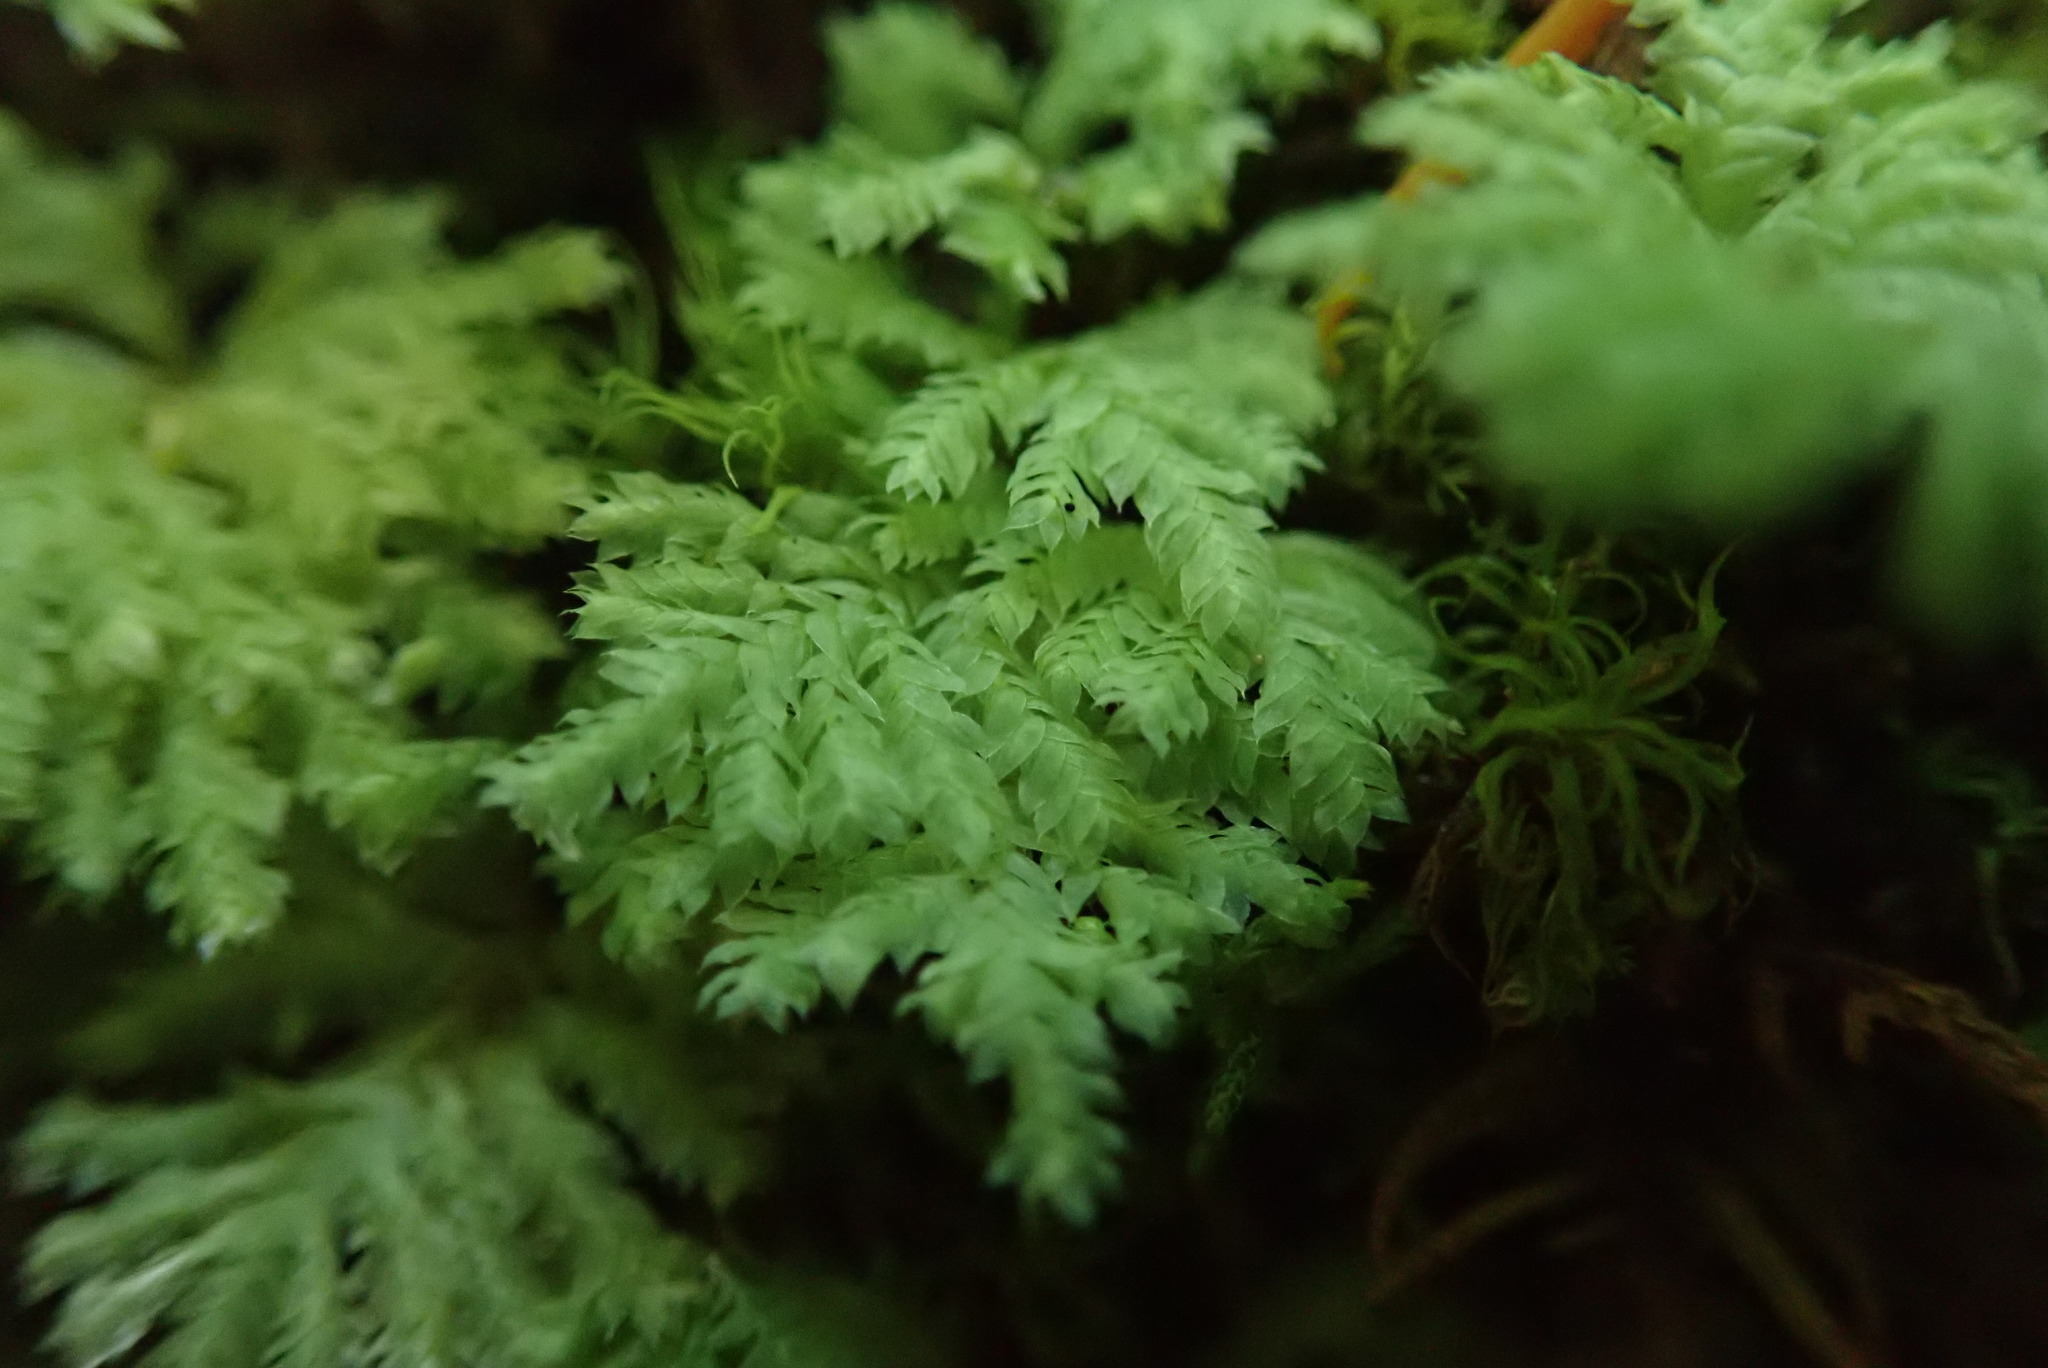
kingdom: Plantae
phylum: Bryophyta
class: Bryopsida
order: Hypopterygiales
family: Hypopterygiaceae
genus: Hypopterygium
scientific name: Hypopterygium flavolimbatum
